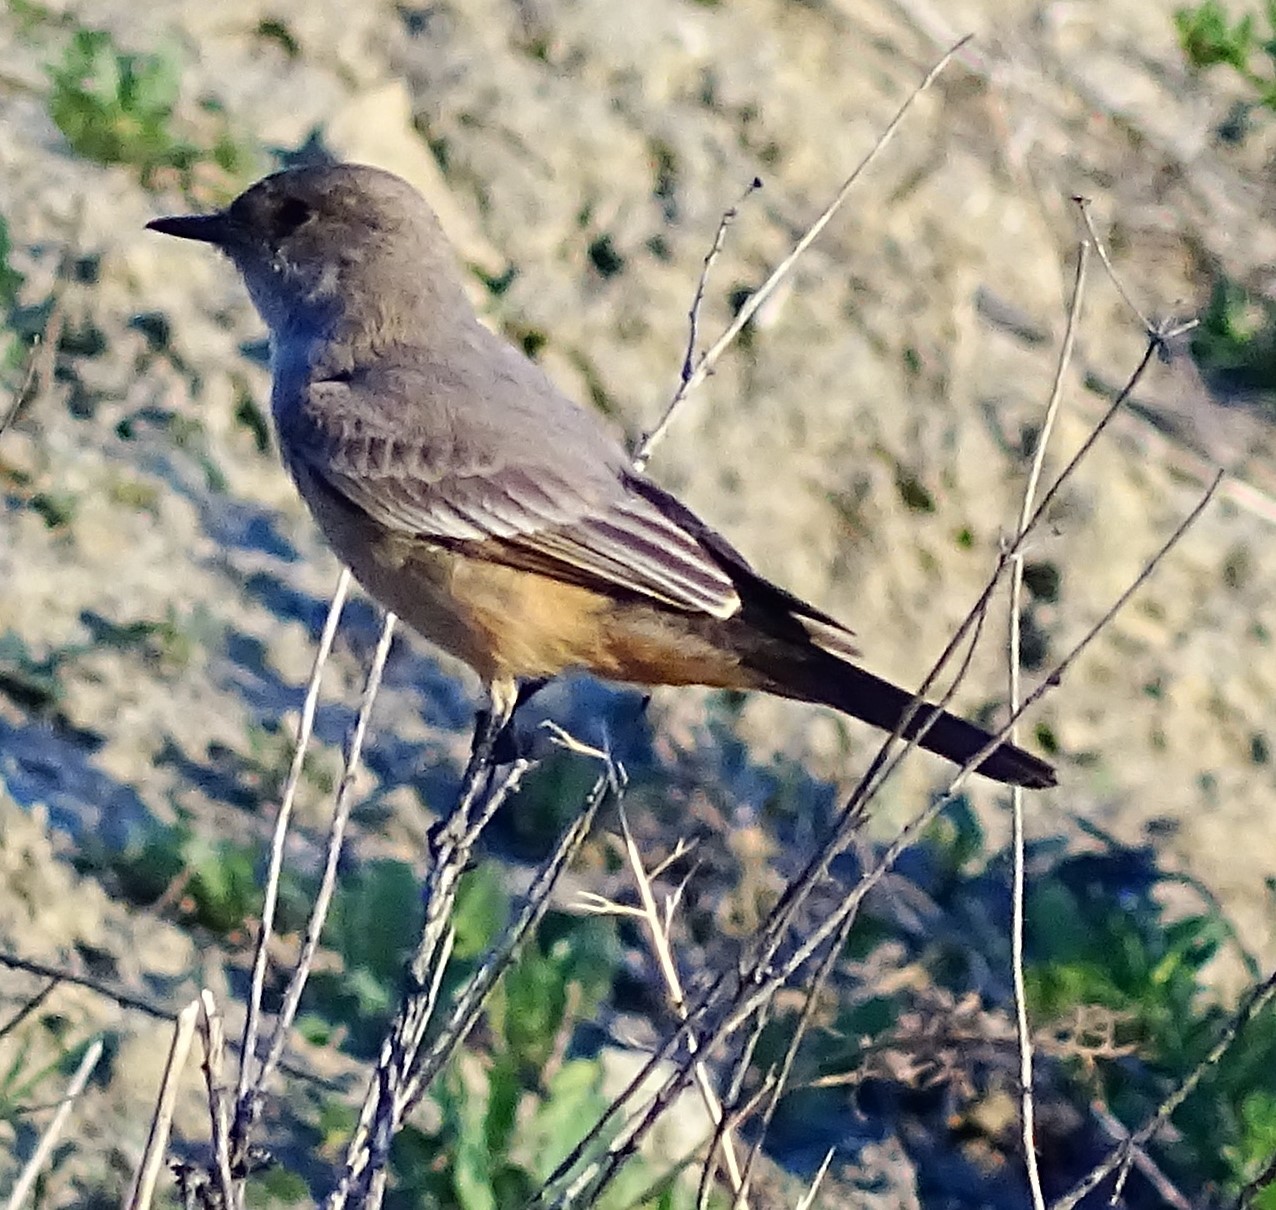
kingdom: Animalia
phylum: Chordata
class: Aves
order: Passeriformes
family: Tyrannidae
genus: Sayornis
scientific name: Sayornis saya
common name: Say's phoebe
